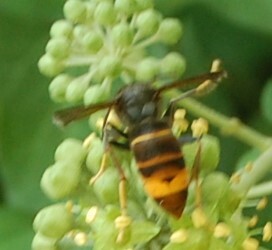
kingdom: Animalia
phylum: Arthropoda
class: Insecta
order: Hymenoptera
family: Vespidae
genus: Vespa
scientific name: Vespa velutina
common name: Asian hornet
